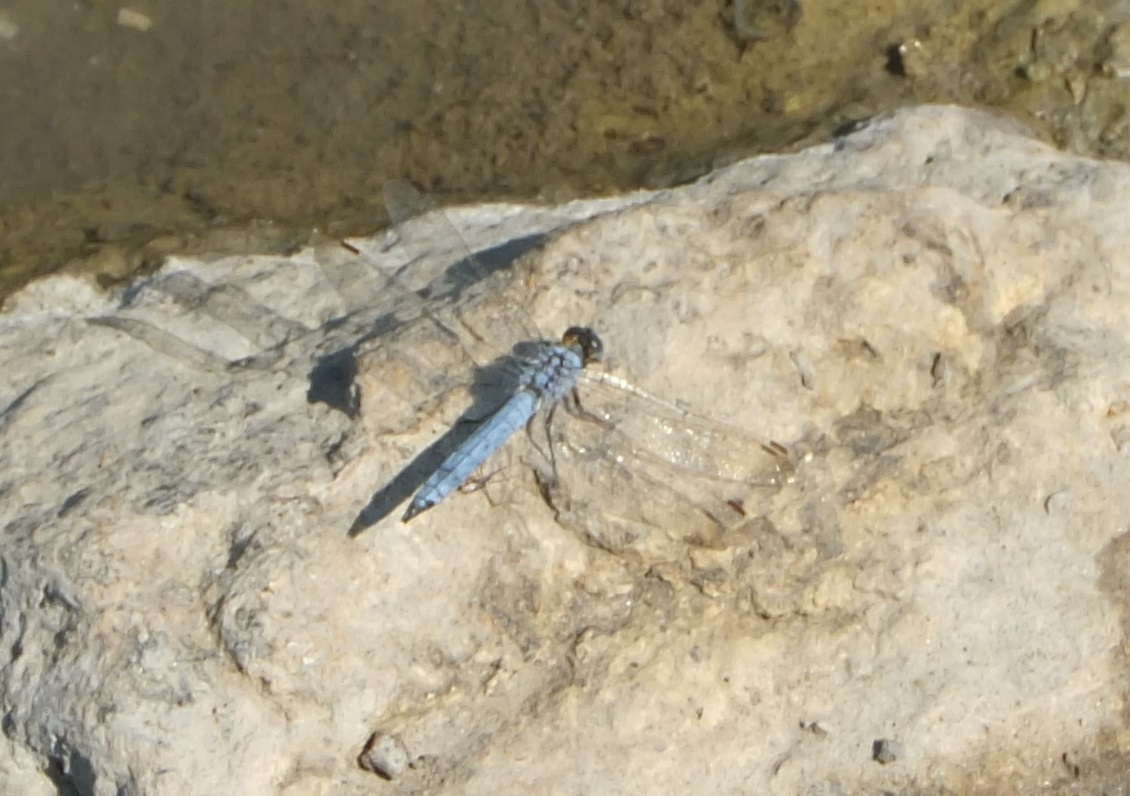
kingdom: Animalia
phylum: Arthropoda
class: Insecta
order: Odonata
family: Libellulidae
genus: Orthetrum
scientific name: Orthetrum brunneum
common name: Southern skimmer
